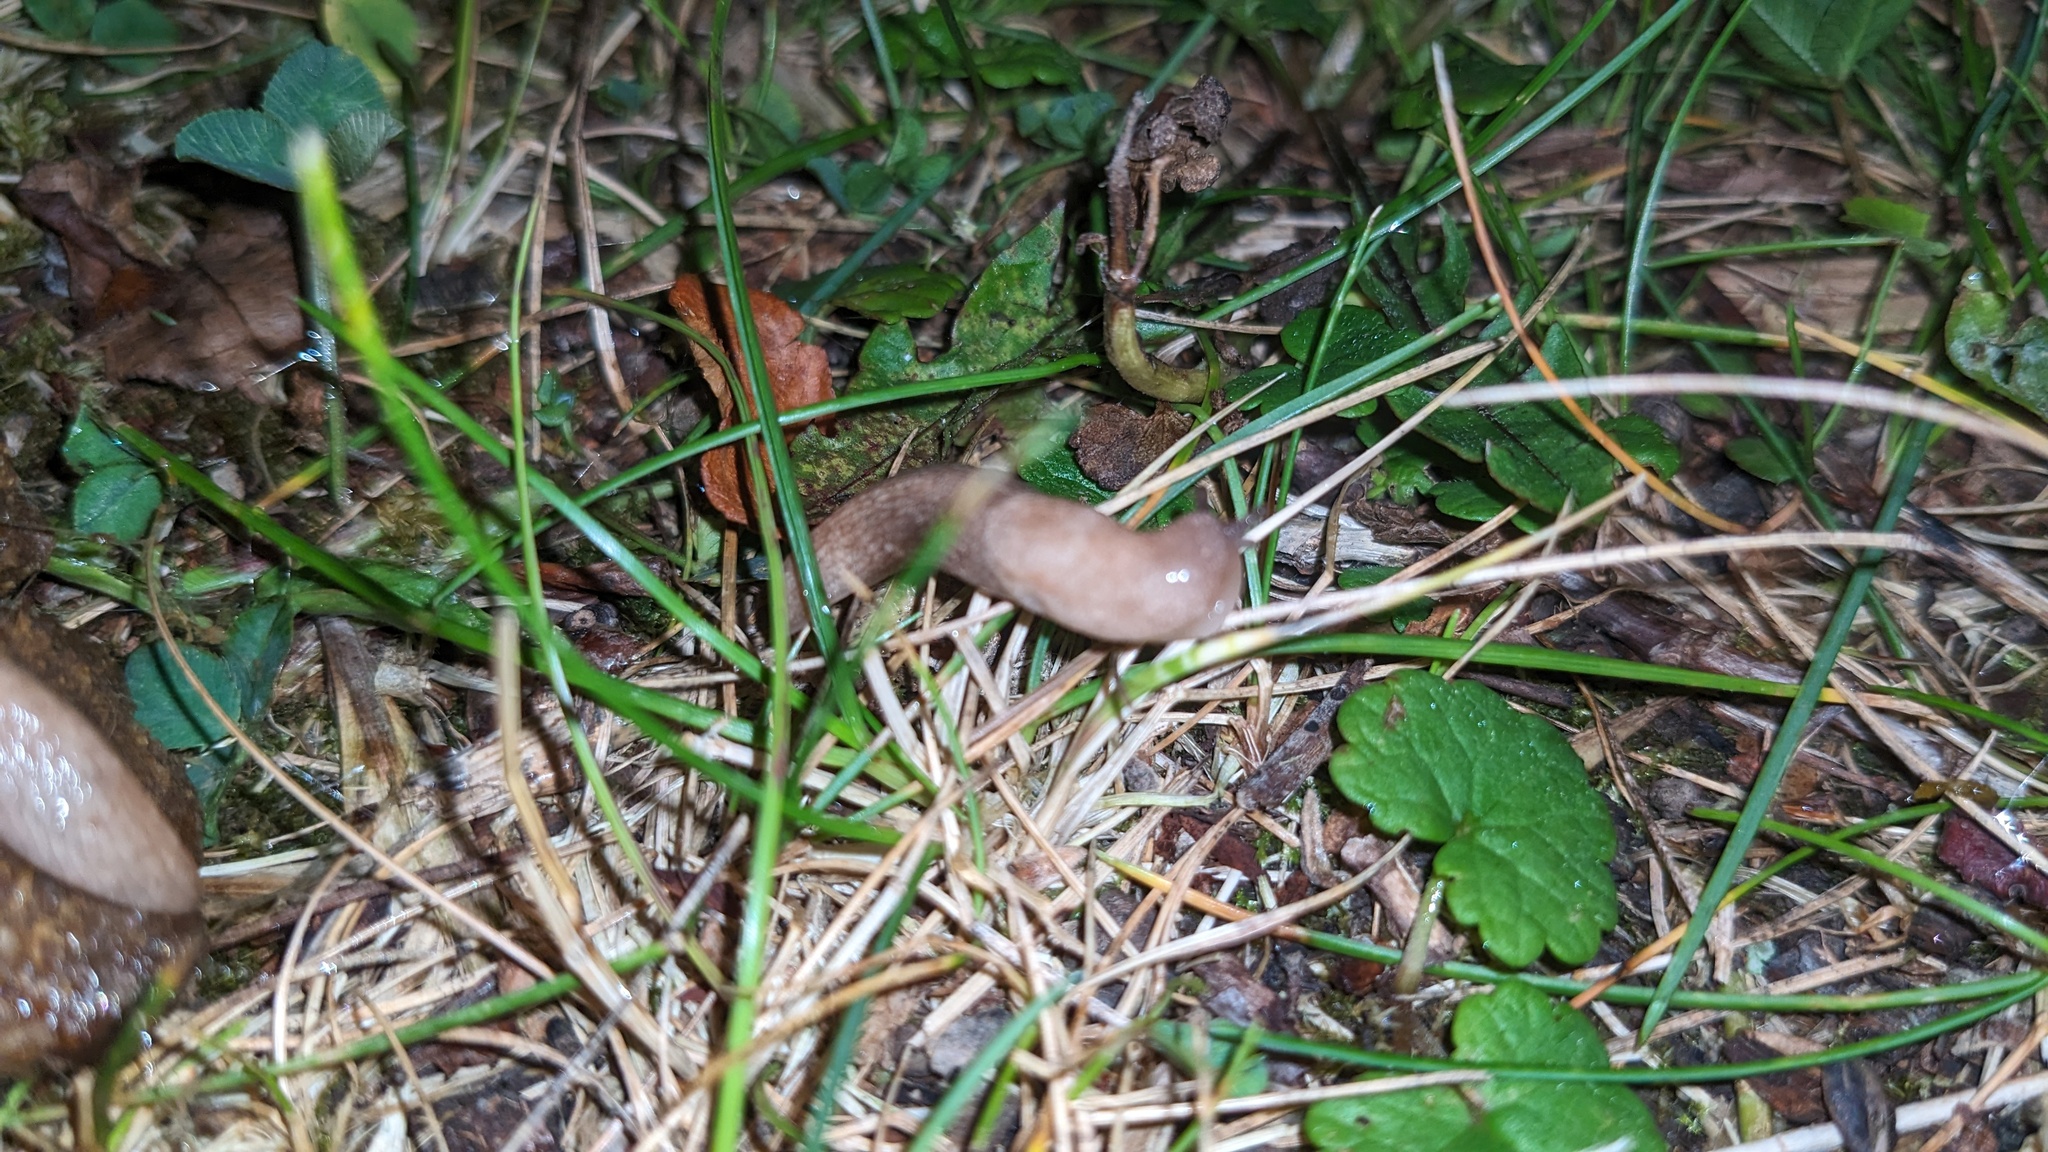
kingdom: Animalia
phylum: Mollusca
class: Gastropoda
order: Stylommatophora
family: Agriolimacidae
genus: Deroceras
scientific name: Deroceras reticulatum
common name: Gray field slug
